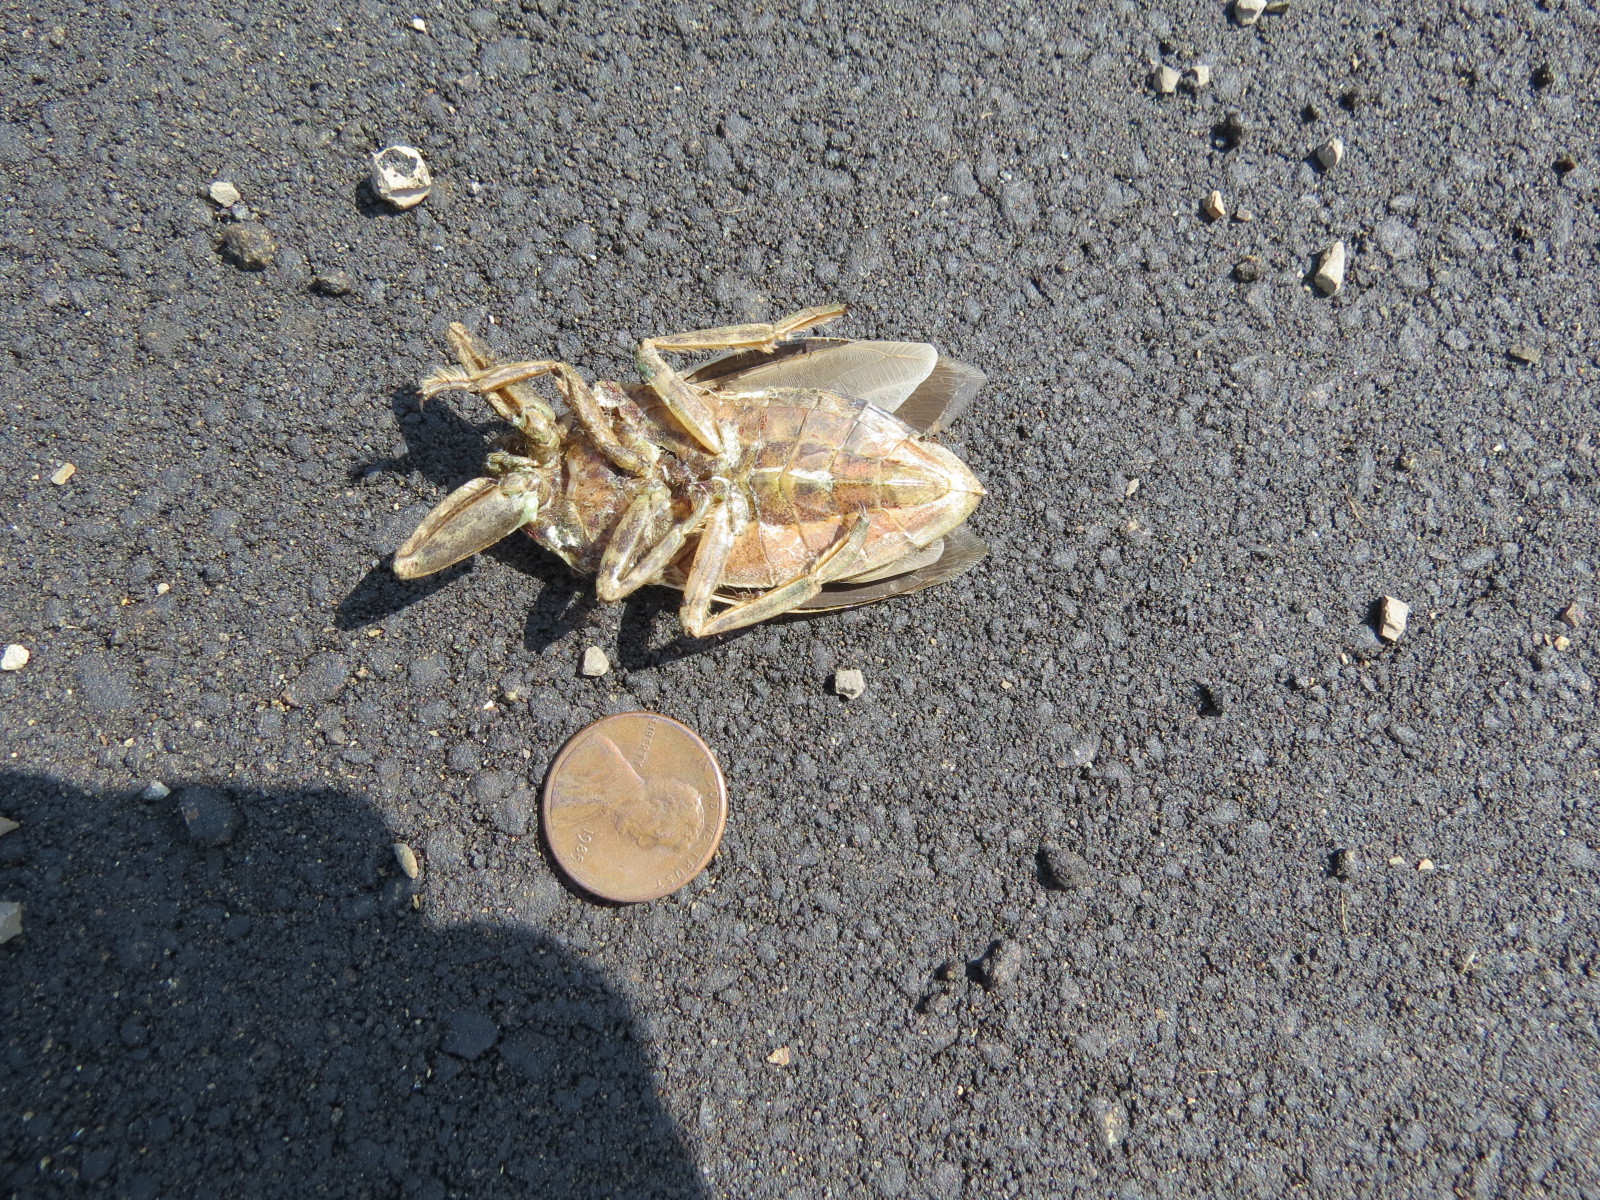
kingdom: Animalia
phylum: Arthropoda
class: Insecta
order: Hemiptera
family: Belostomatidae
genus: Lethocerus
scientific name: Lethocerus americanus
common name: Giant water bug
